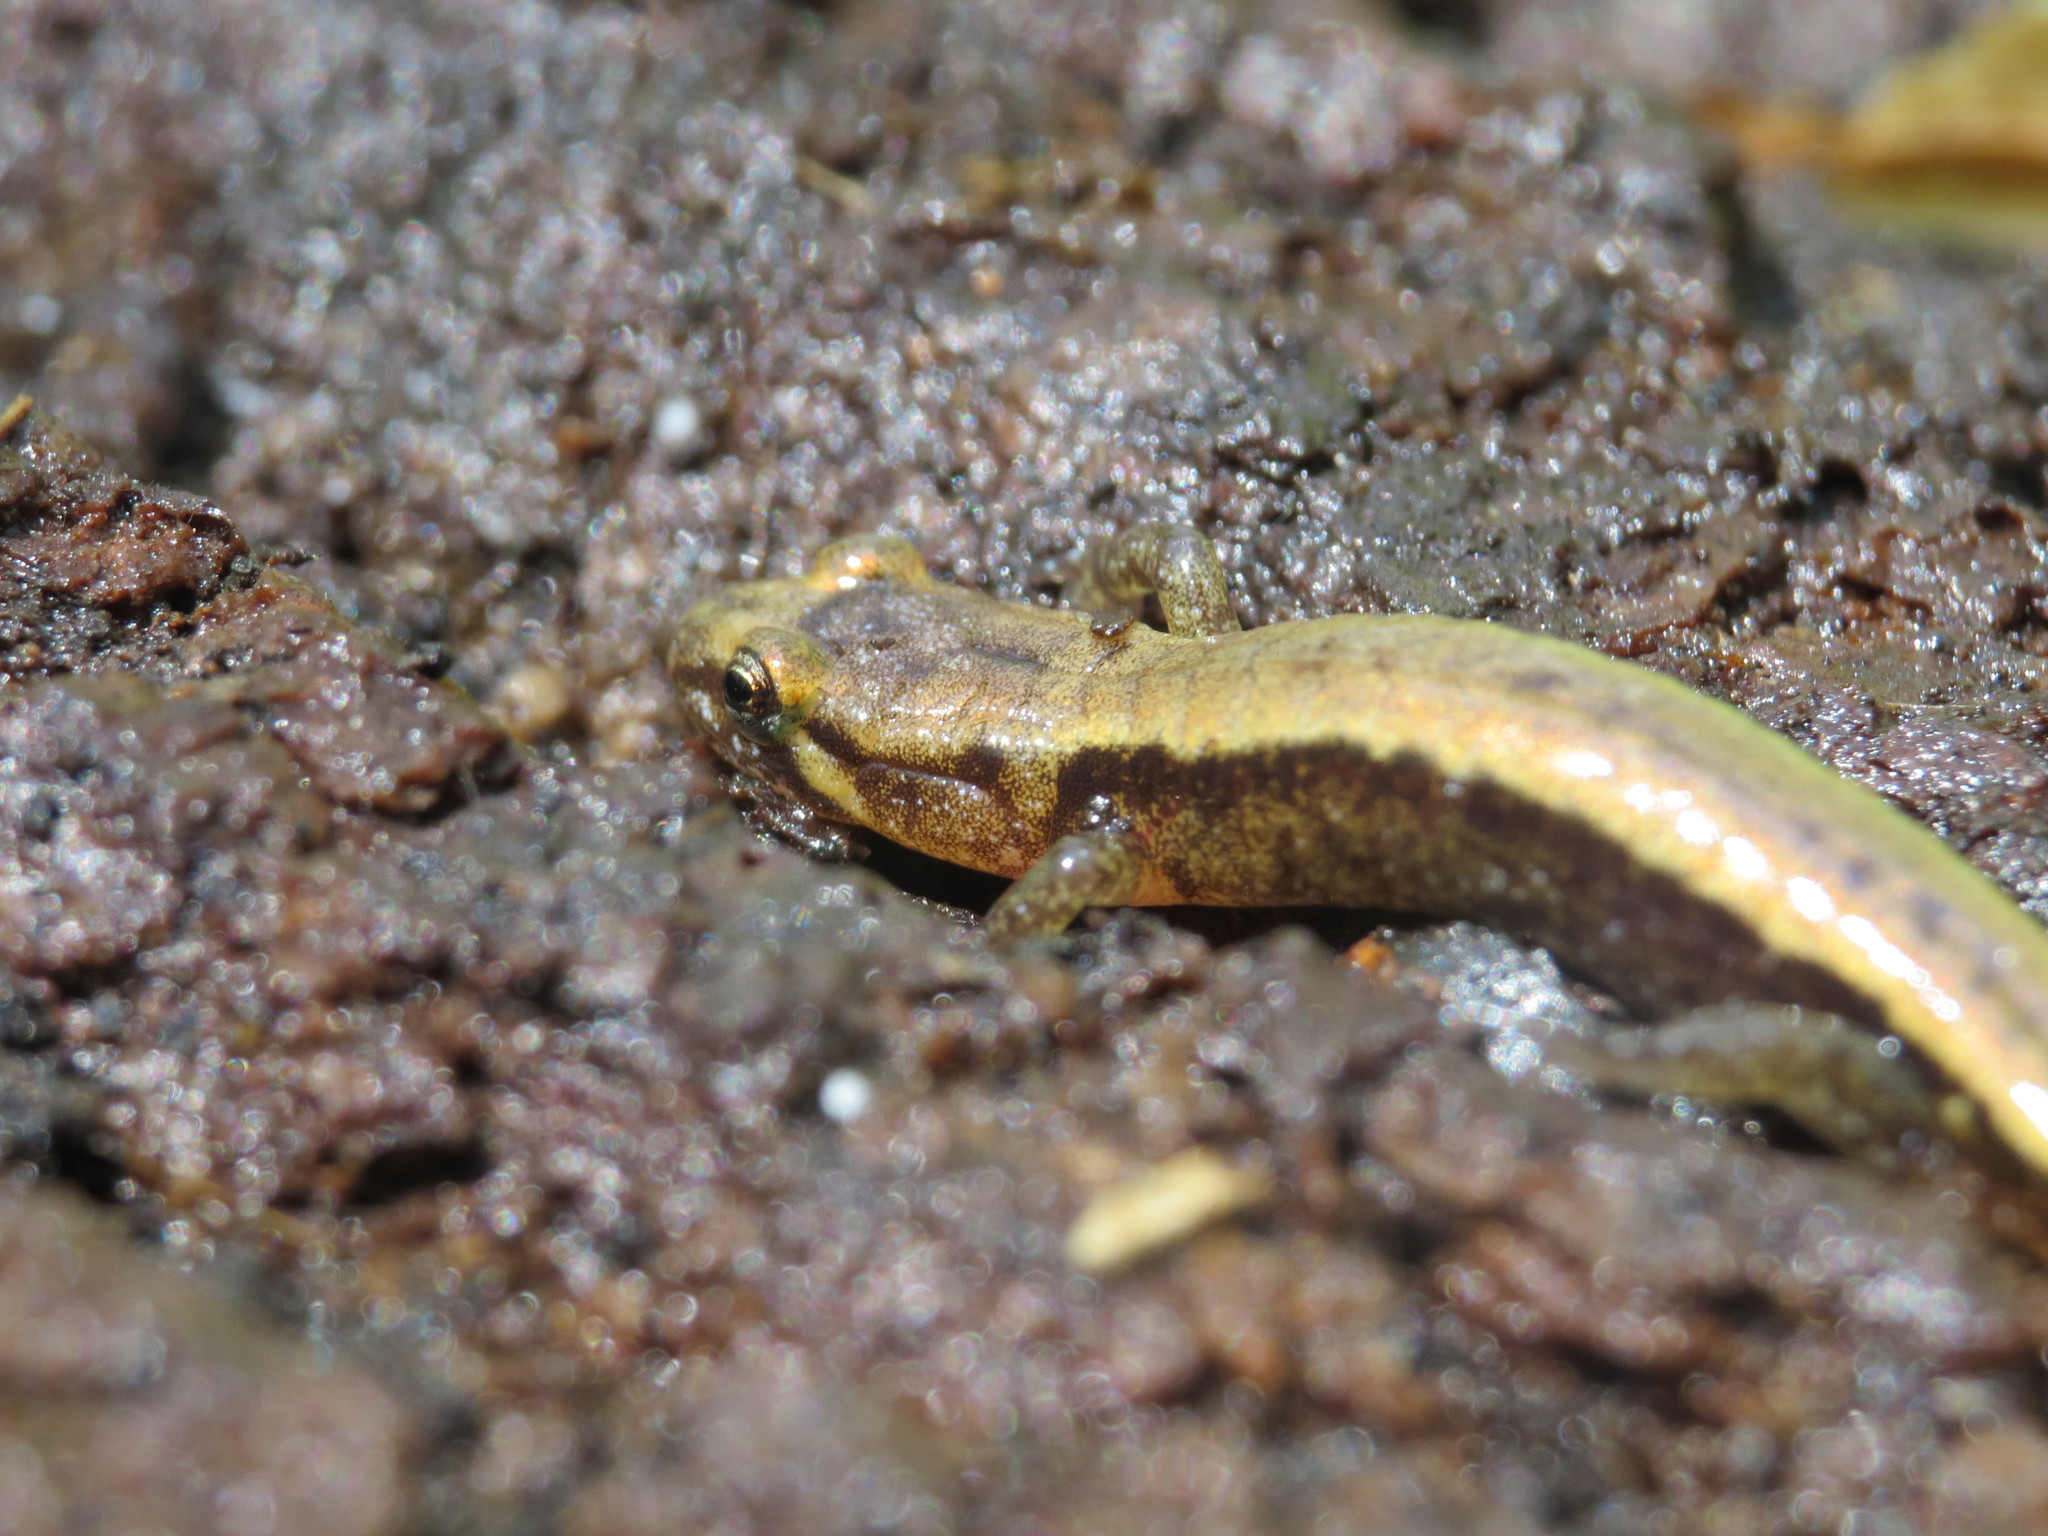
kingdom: Animalia
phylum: Chordata
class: Amphibia
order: Caudata
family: Plethodontidae
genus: Desmognathus
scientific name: Desmognathus ochrophaeus
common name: Allegheny mountain dusky salamander
